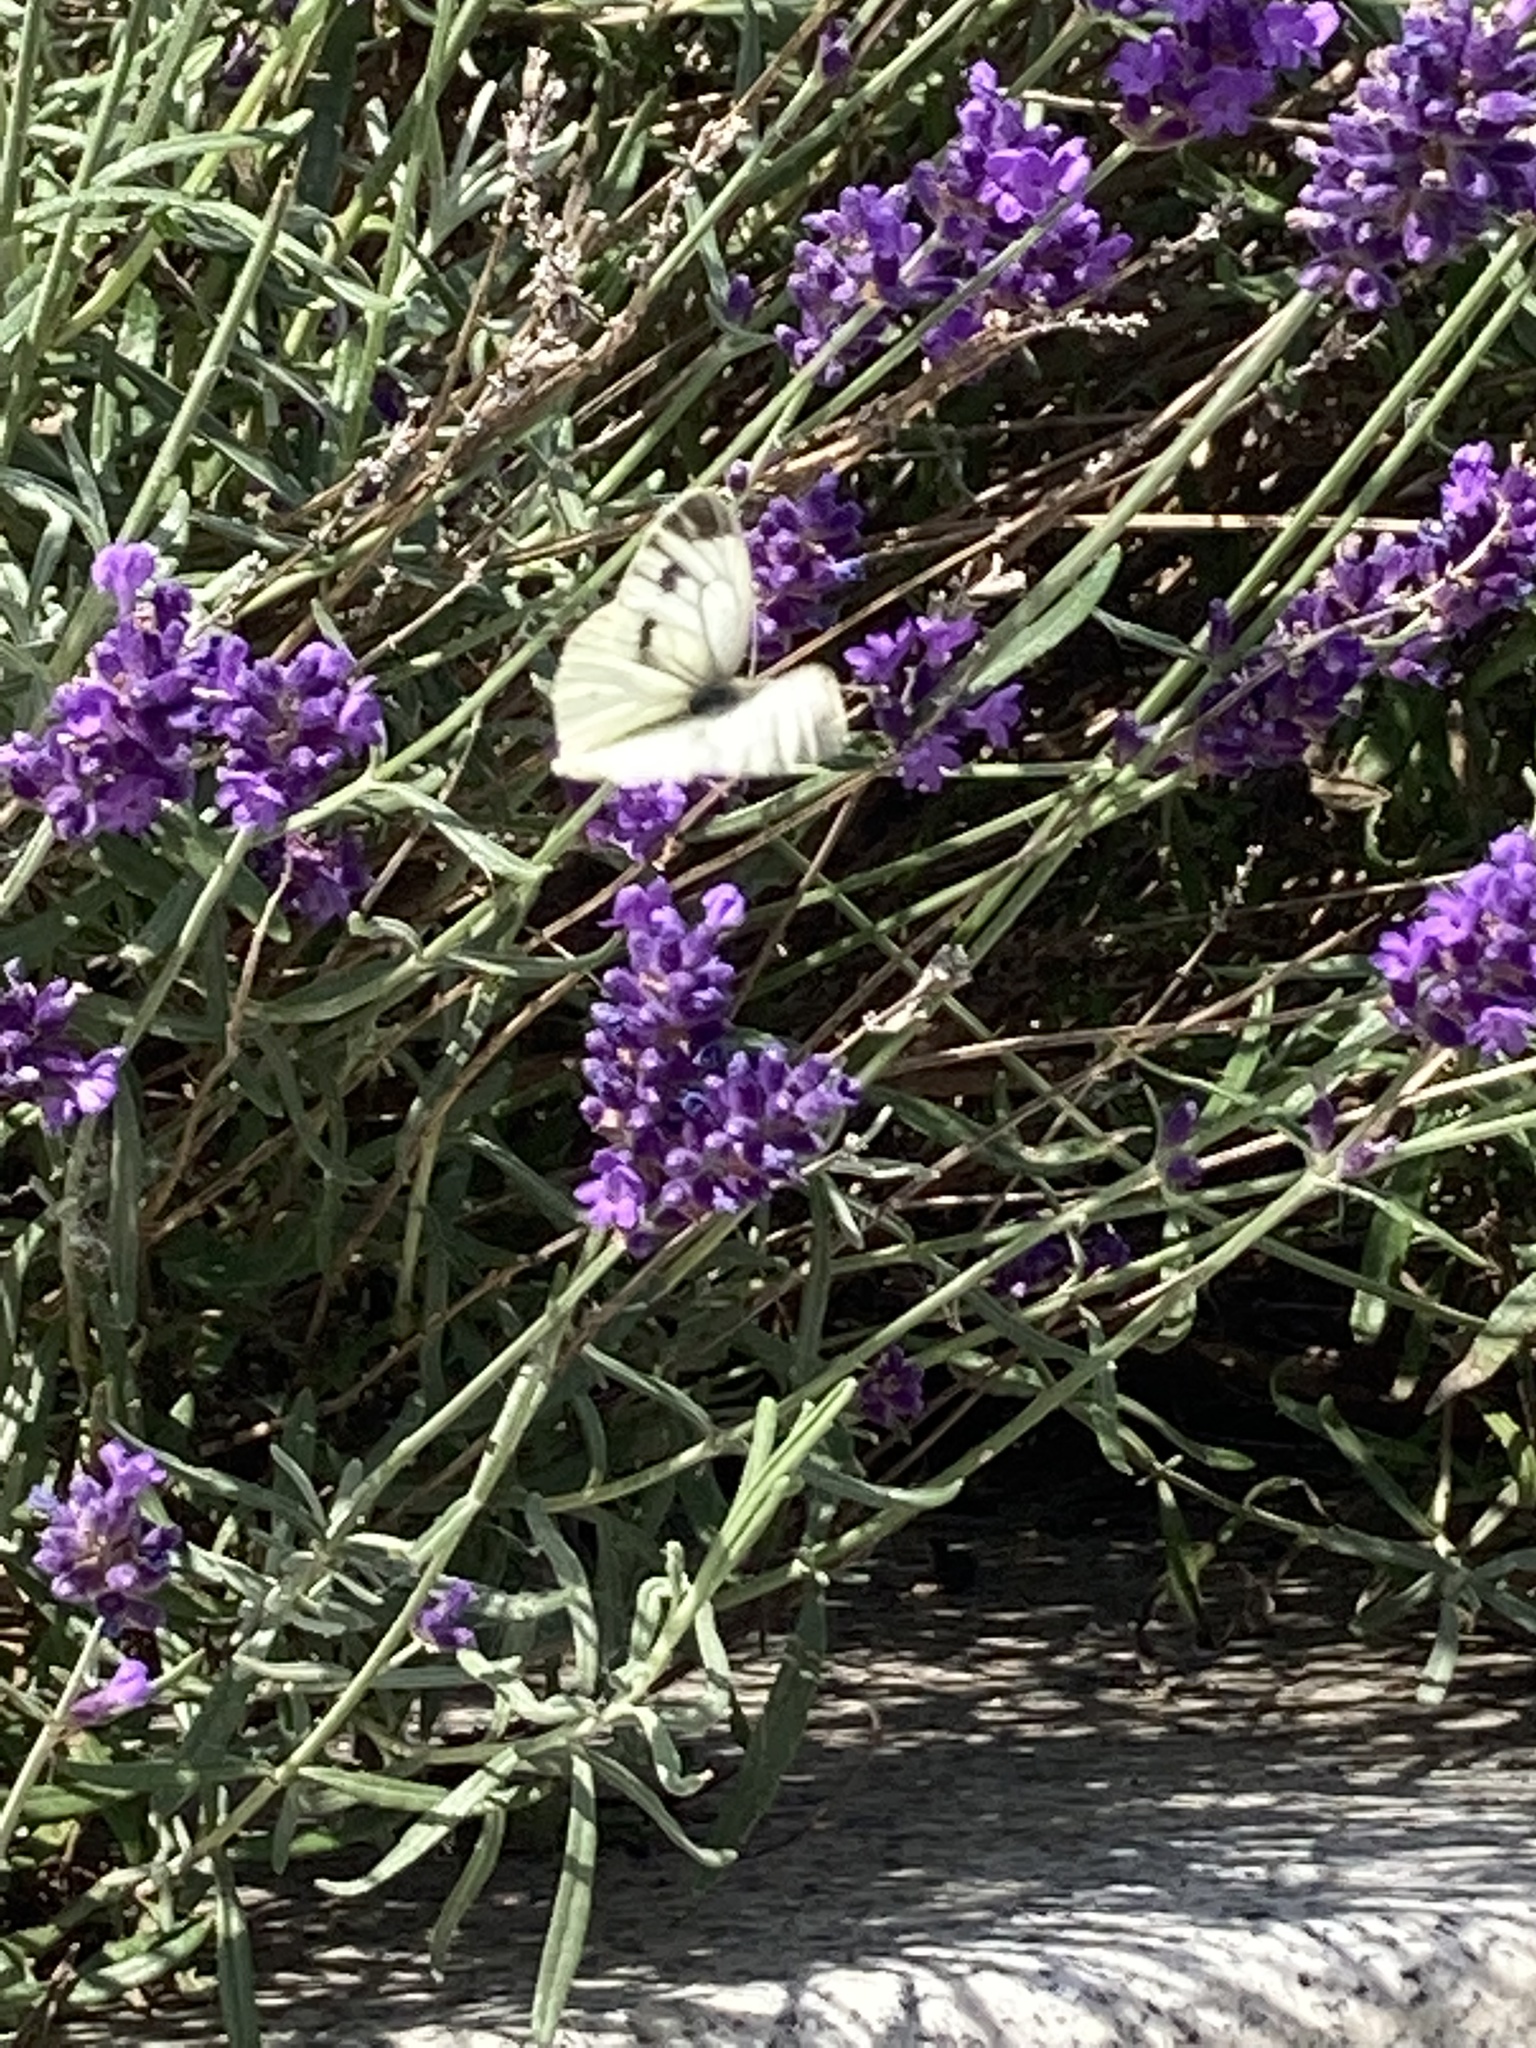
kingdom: Animalia
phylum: Arthropoda
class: Insecta
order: Lepidoptera
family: Pieridae
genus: Pieris
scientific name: Pieris napi
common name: Green-veined white
